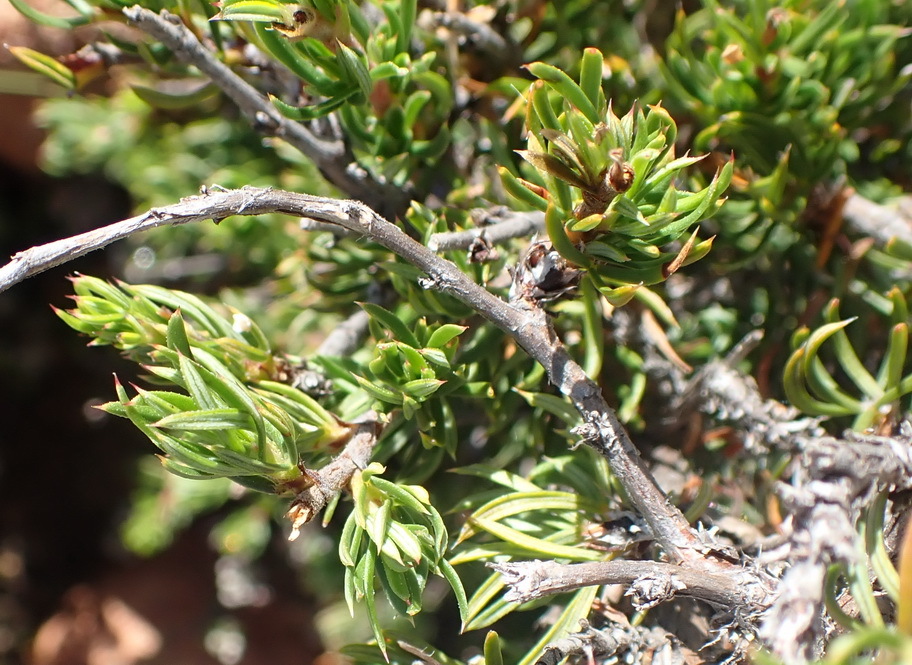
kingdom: Plantae
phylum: Tracheophyta
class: Magnoliopsida
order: Rosales
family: Rosaceae
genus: Cliffortia
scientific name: Cliffortia arcuata
